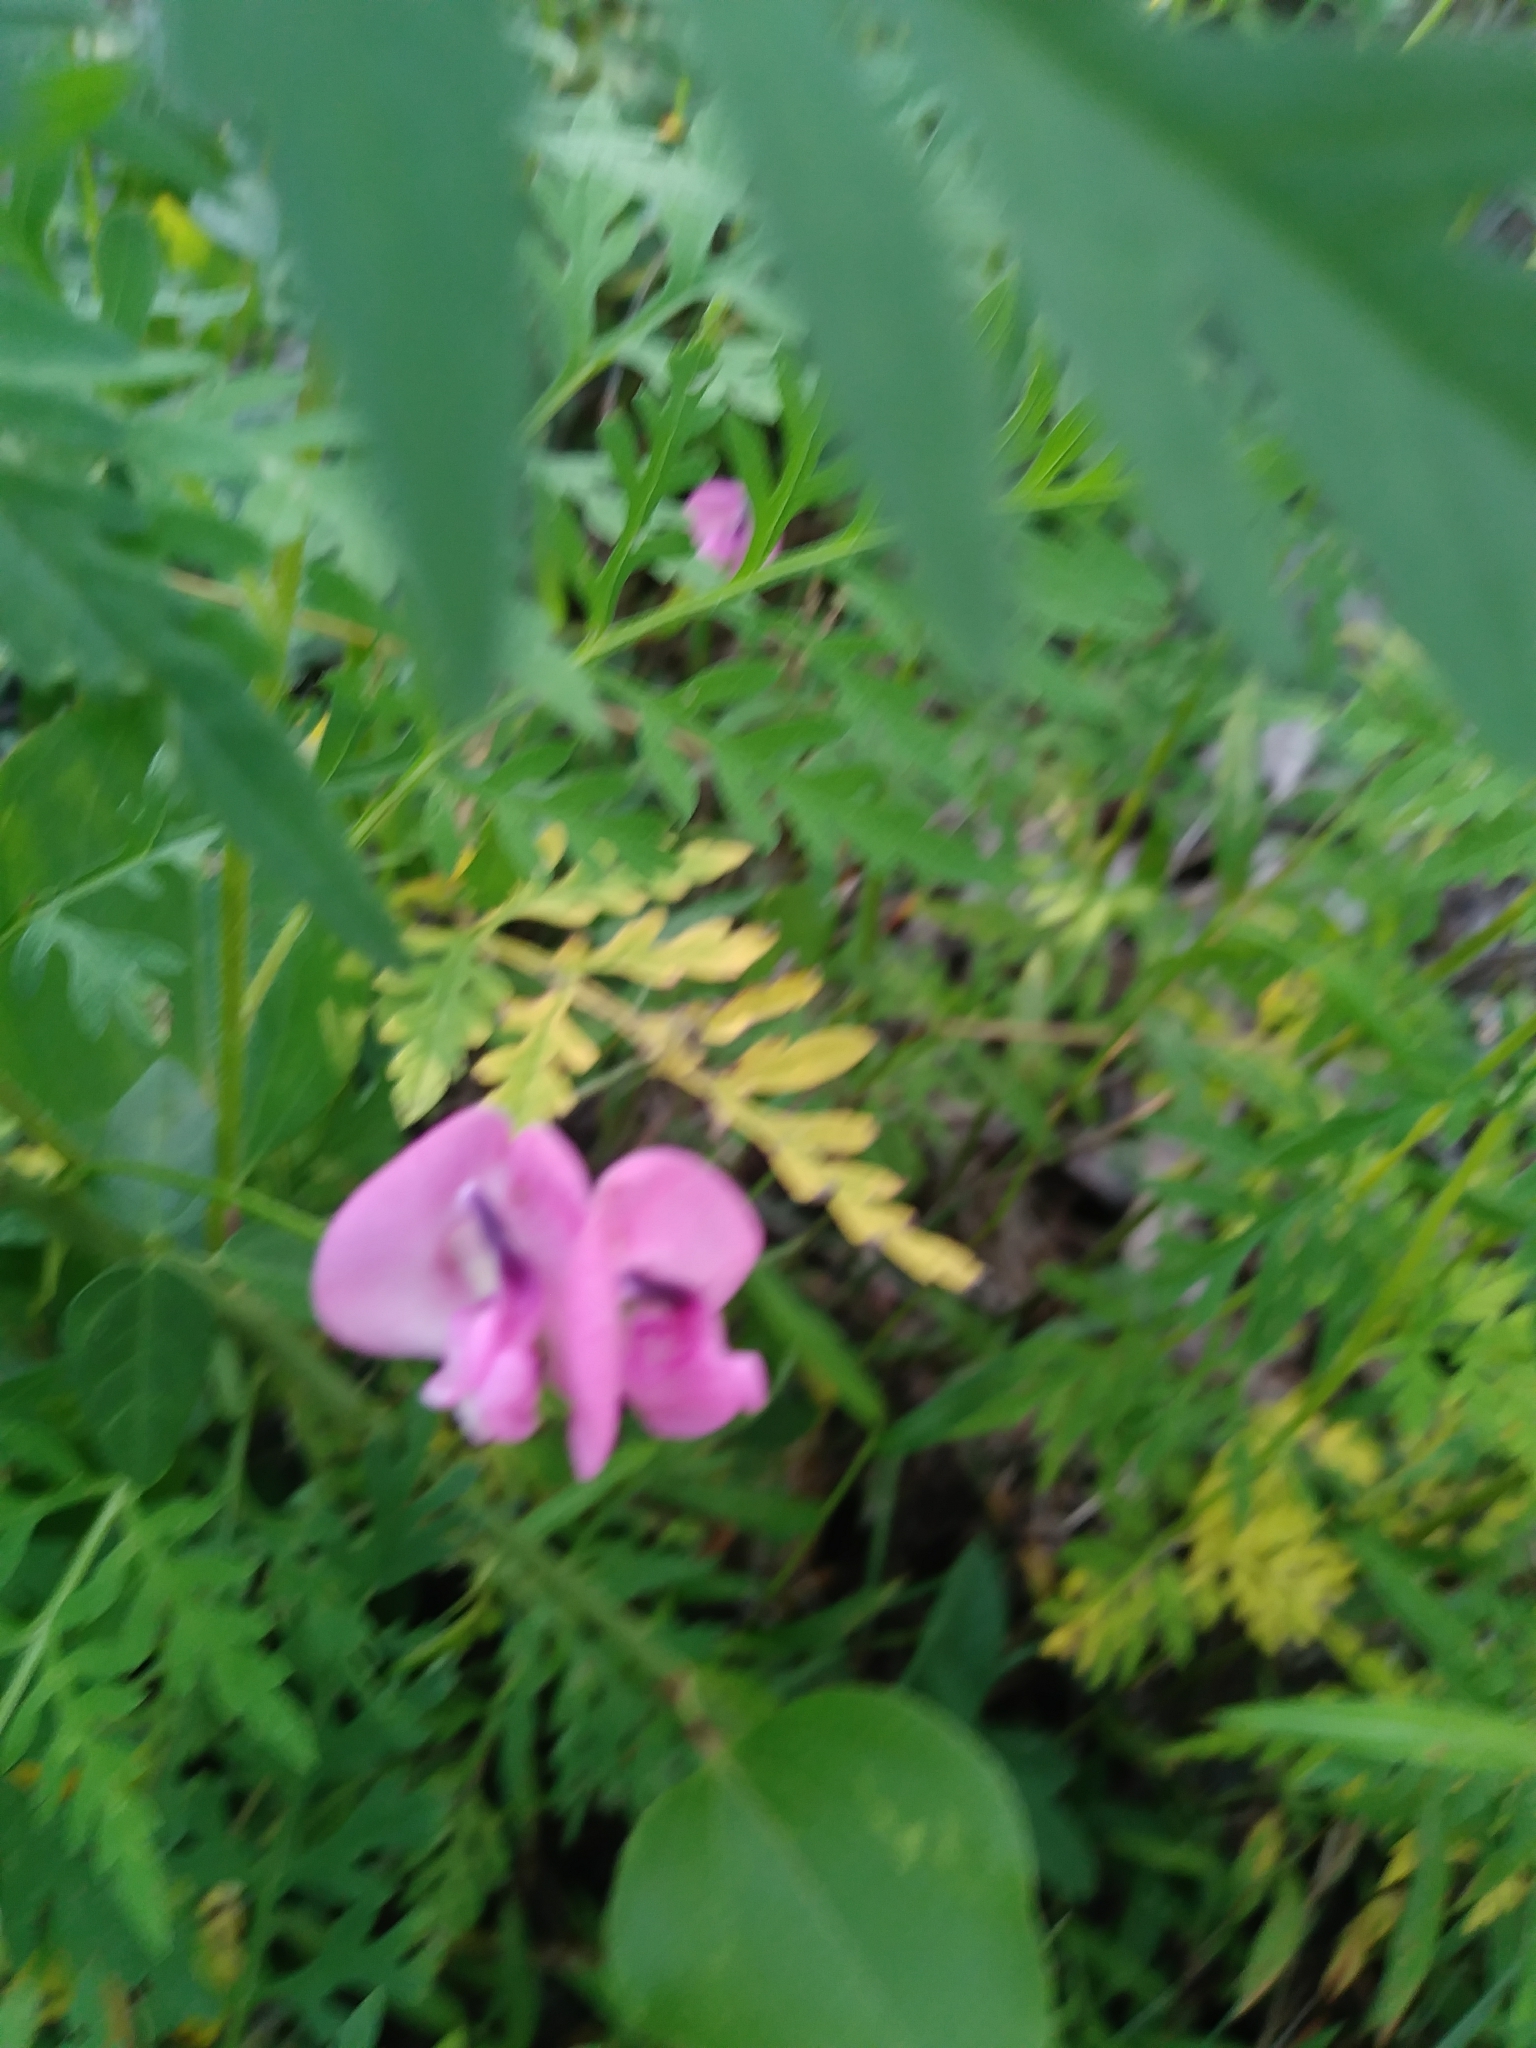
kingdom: Plantae
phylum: Tracheophyta
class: Magnoliopsida
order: Fabales
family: Fabaceae
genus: Strophostyles
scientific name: Strophostyles umbellata
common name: Perennial wild bean
